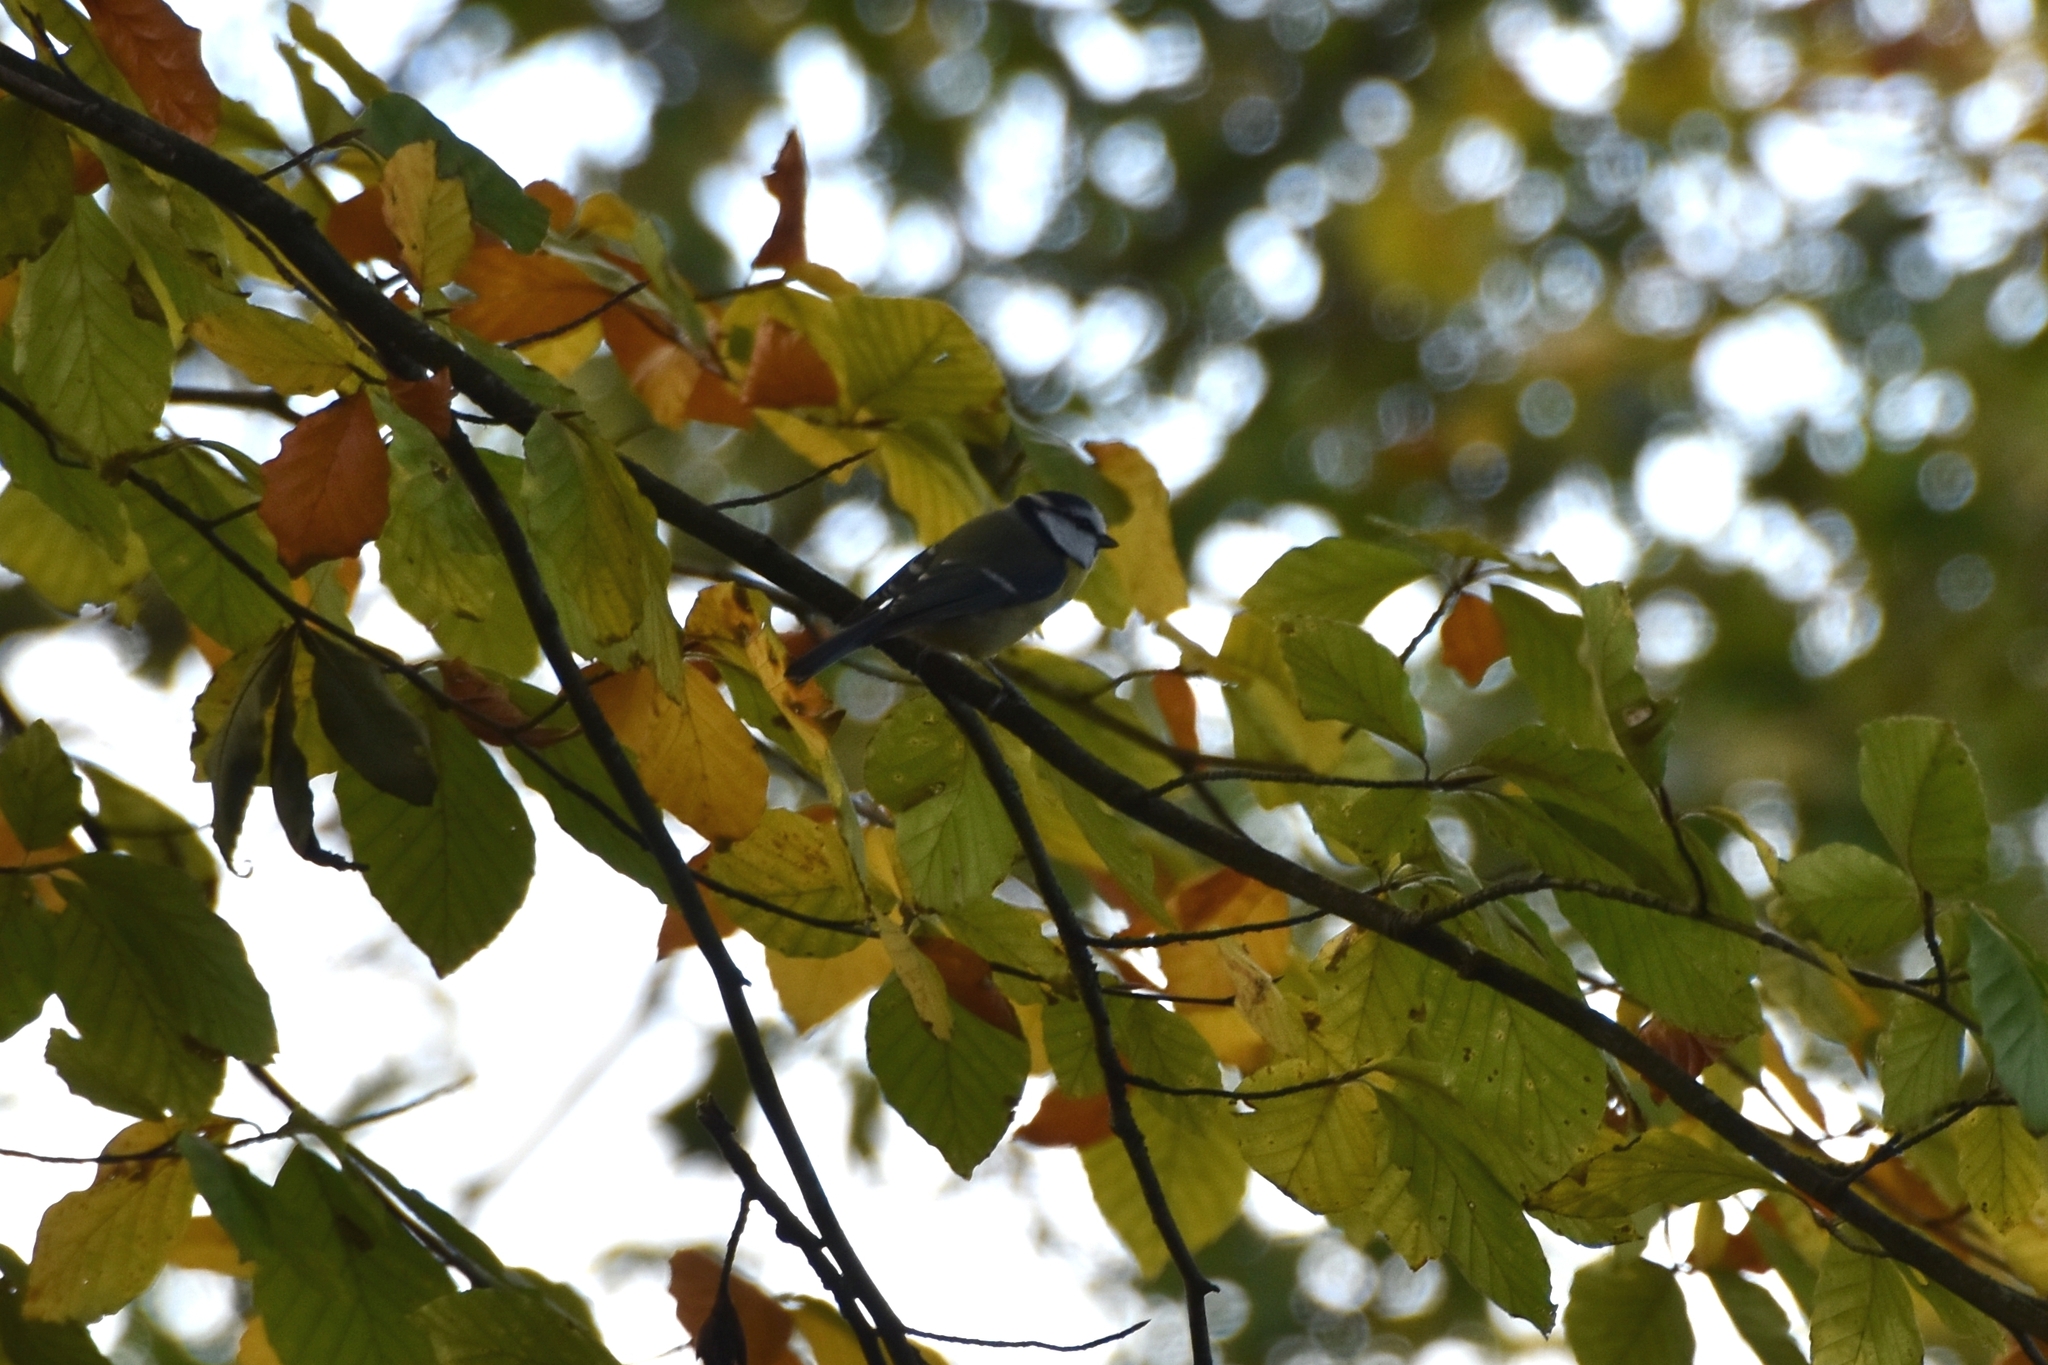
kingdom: Animalia
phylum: Chordata
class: Aves
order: Passeriformes
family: Paridae
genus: Cyanistes
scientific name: Cyanistes caeruleus
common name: Eurasian blue tit
